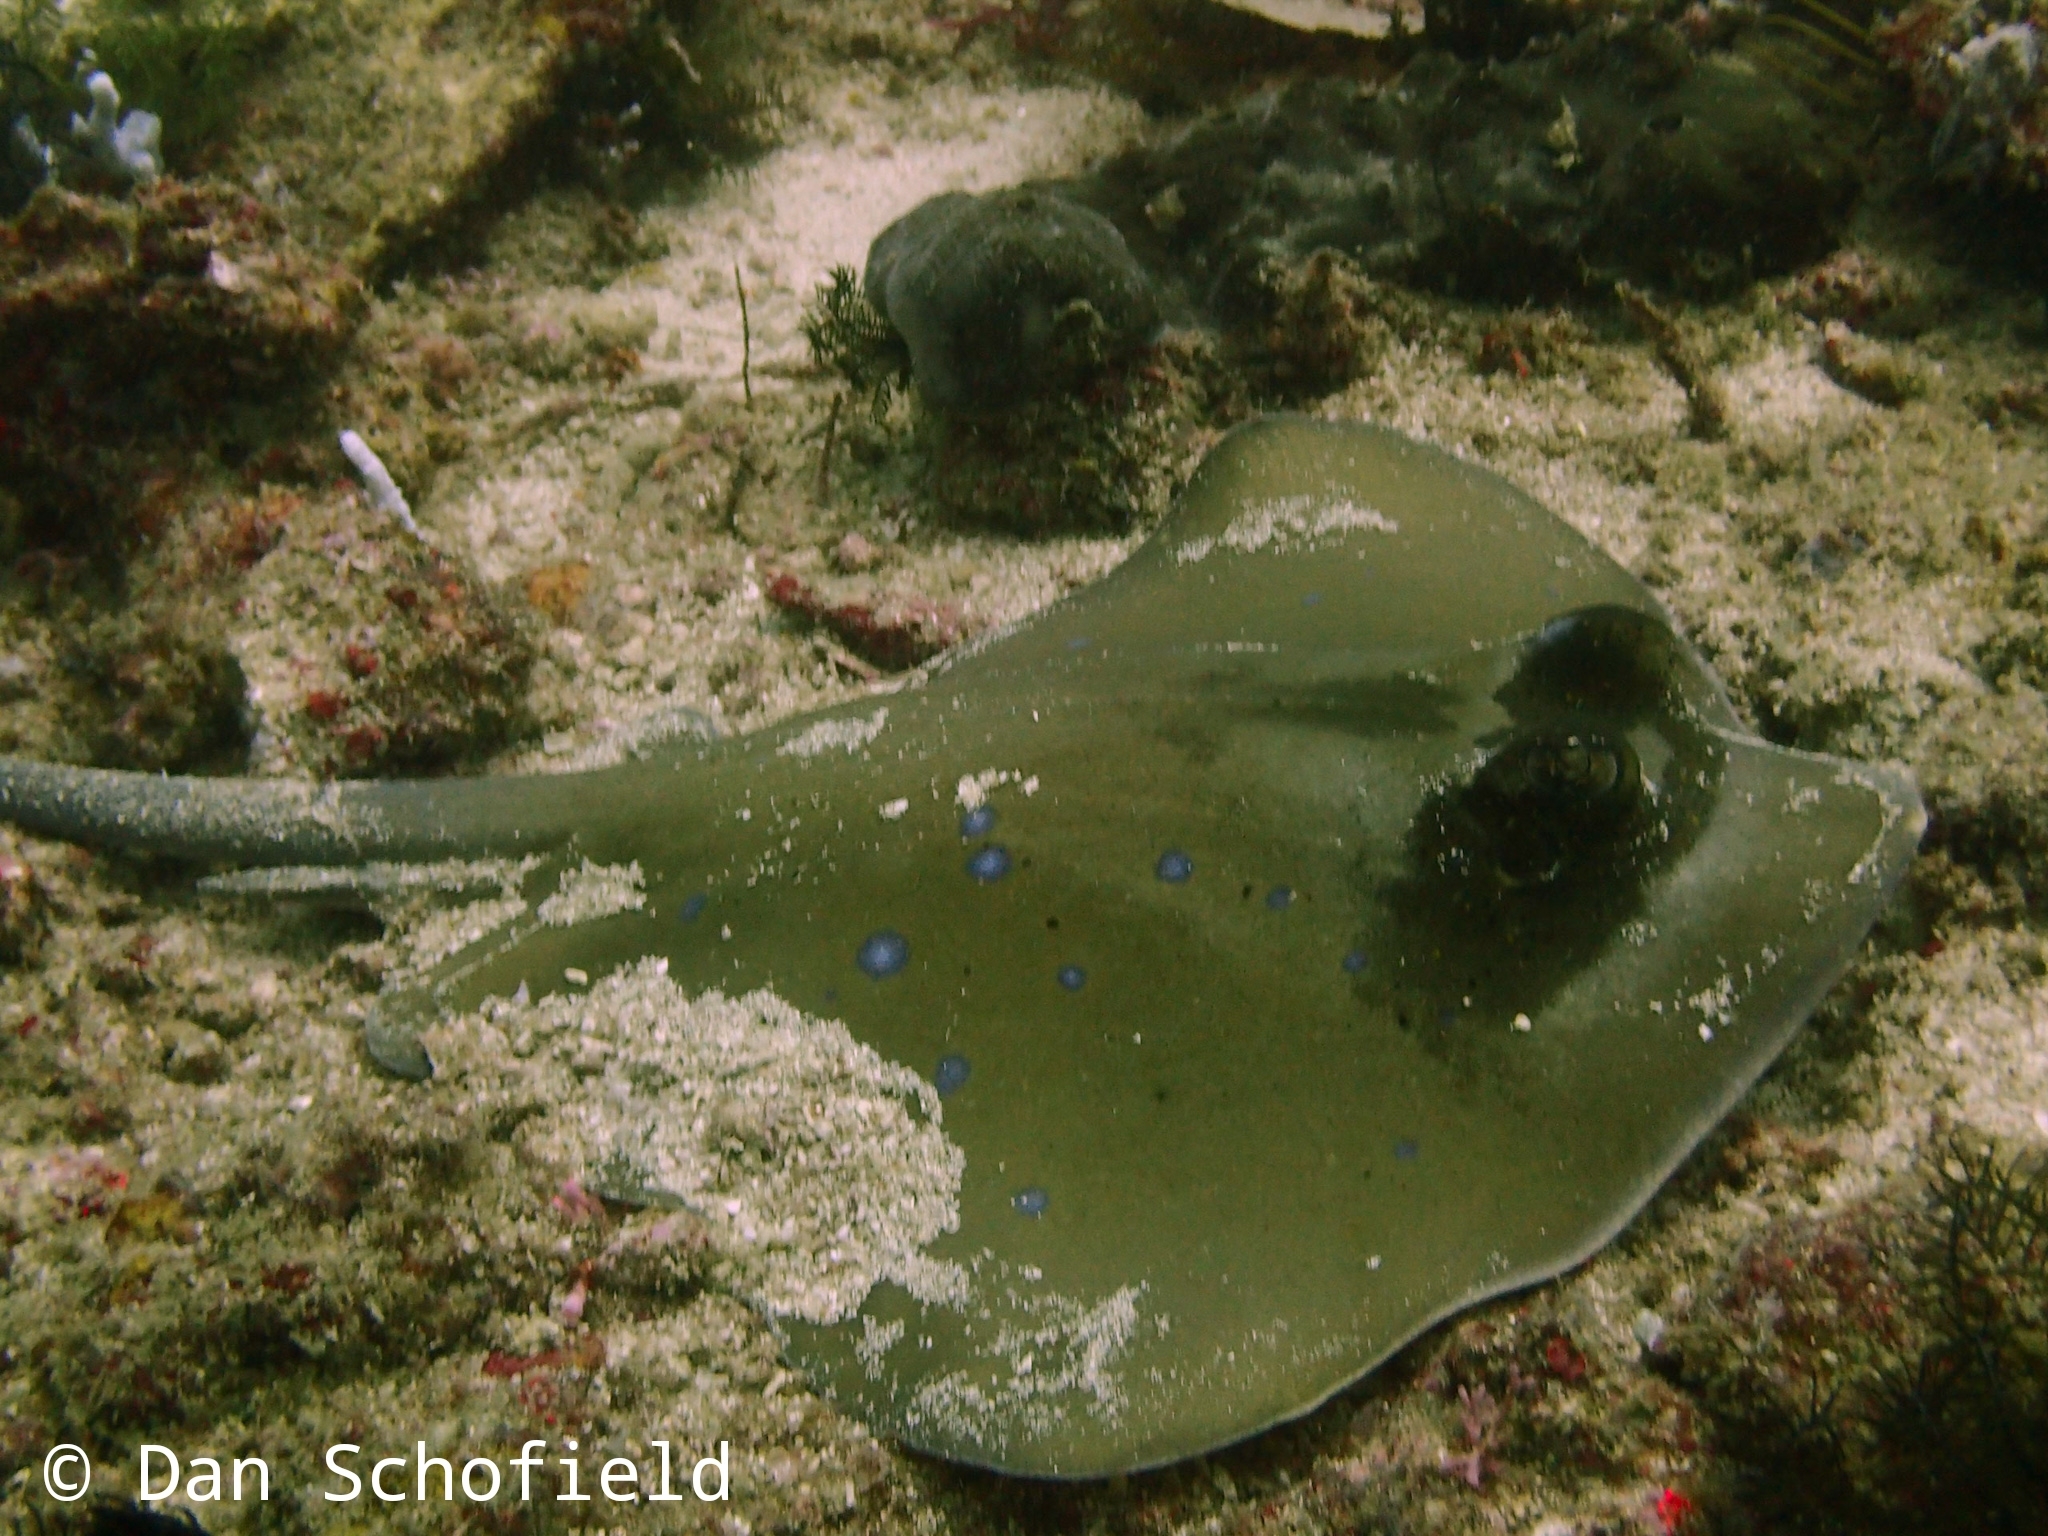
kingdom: Animalia
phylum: Chordata
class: Elasmobranchii
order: Myliobatiformes
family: Dasyatidae
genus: Neotrygon
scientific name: Neotrygon australiae
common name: Australian bluespotted maskray
